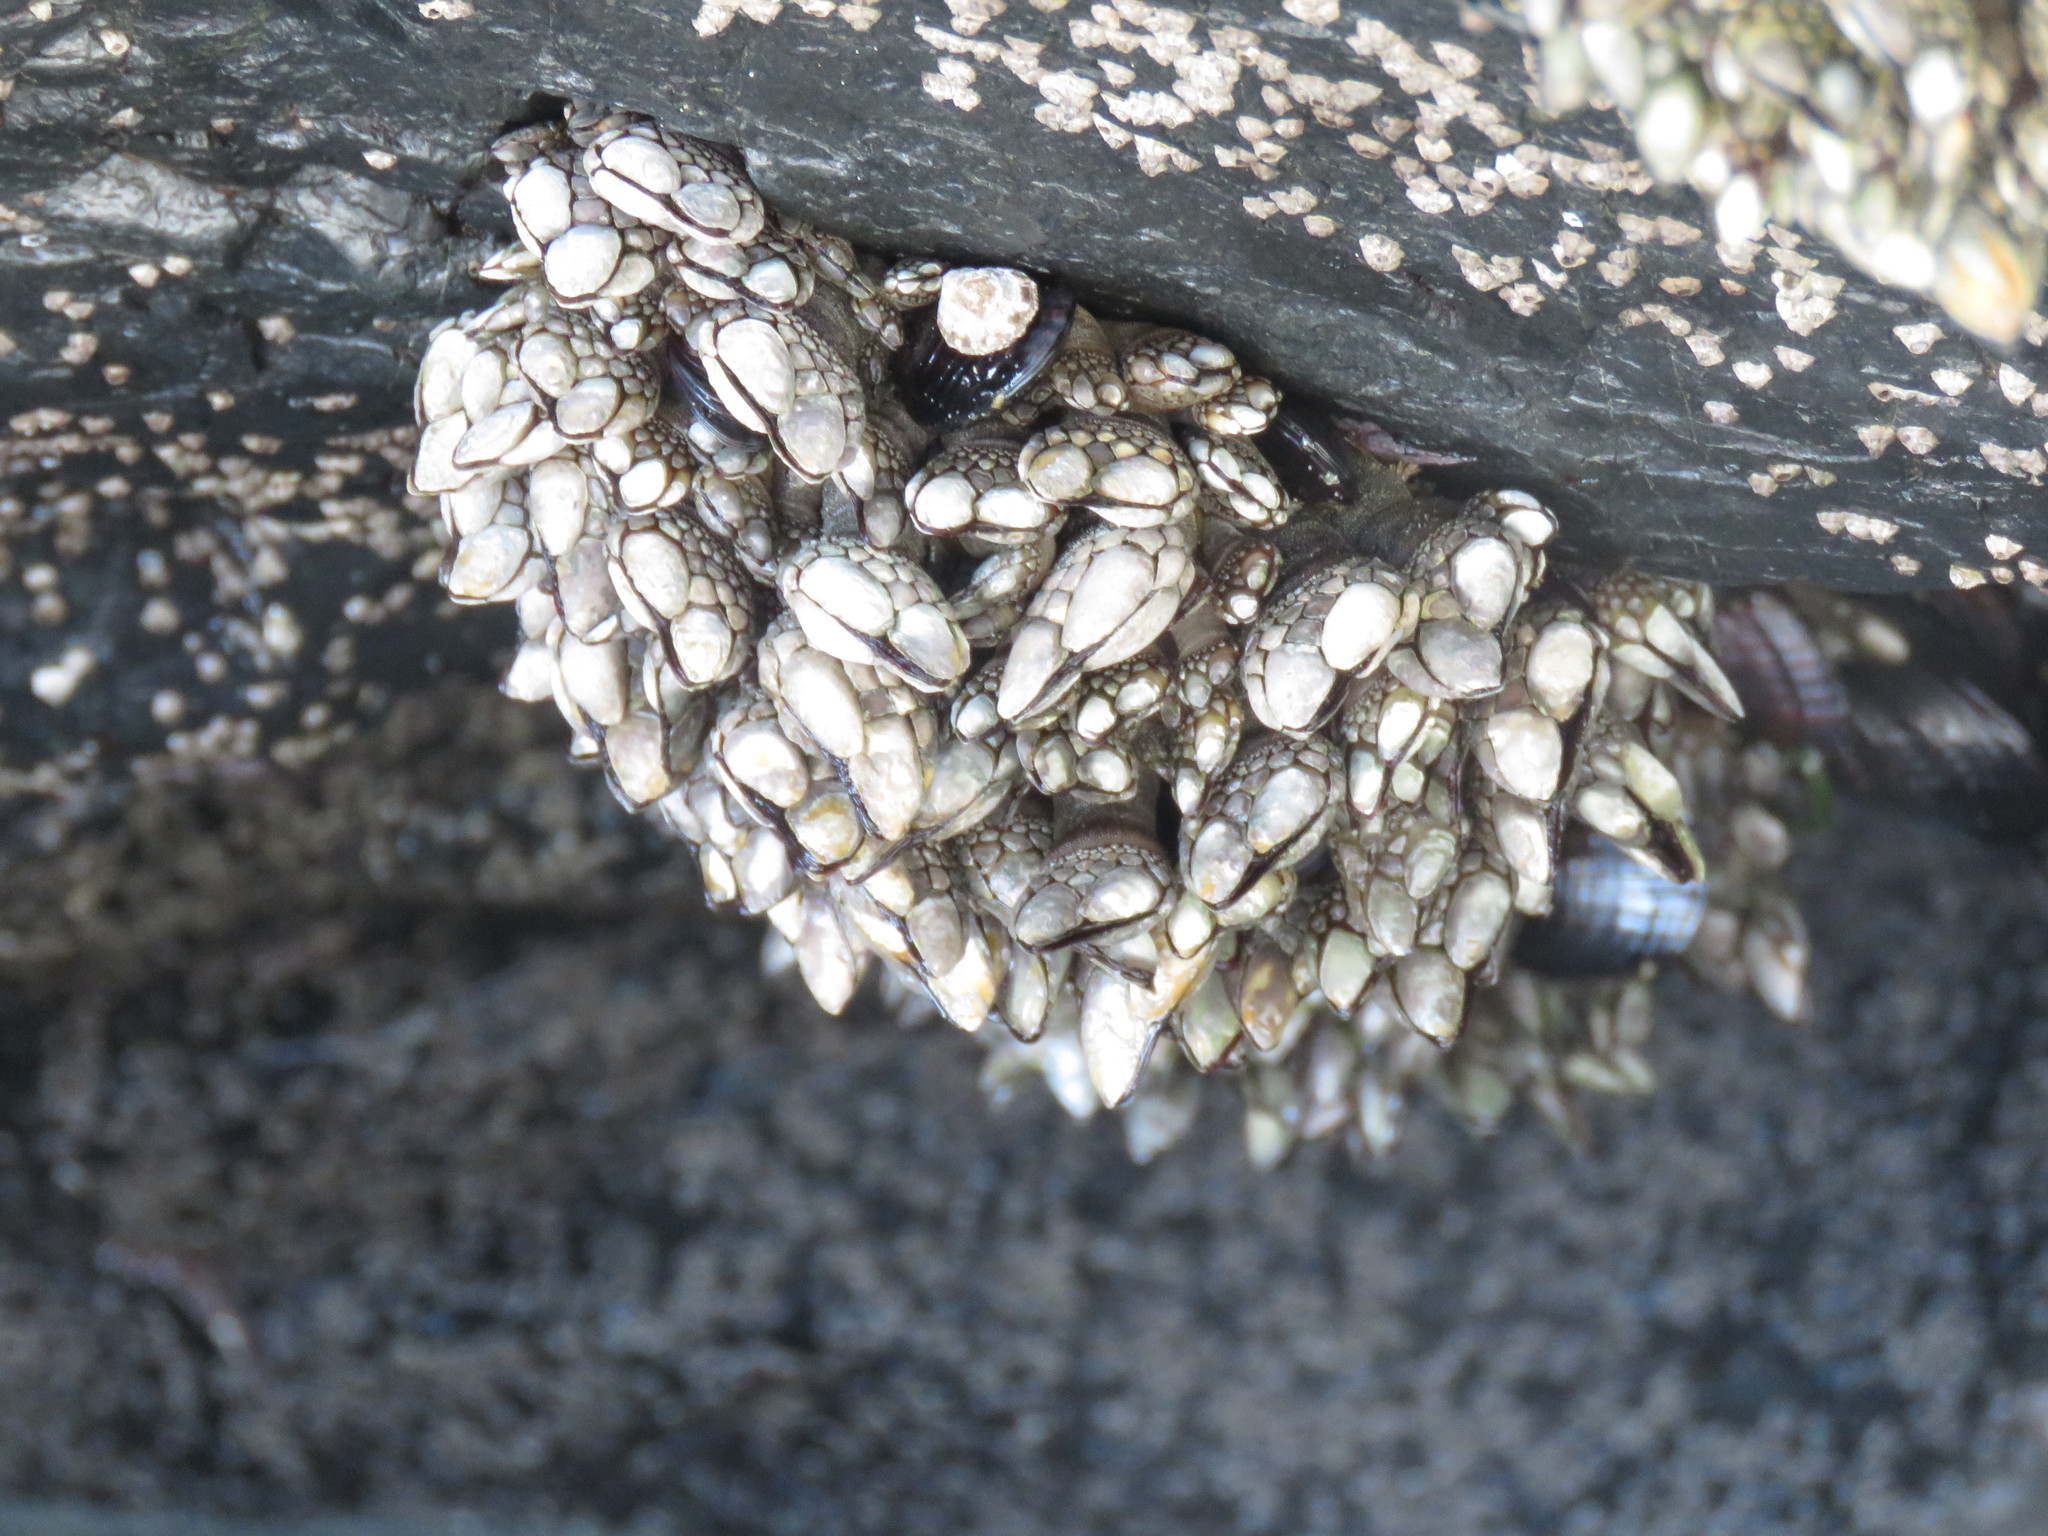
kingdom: Animalia
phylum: Arthropoda
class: Maxillopoda
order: Pedunculata
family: Pollicipedidae
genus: Pollicipes
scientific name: Pollicipes polymerus
